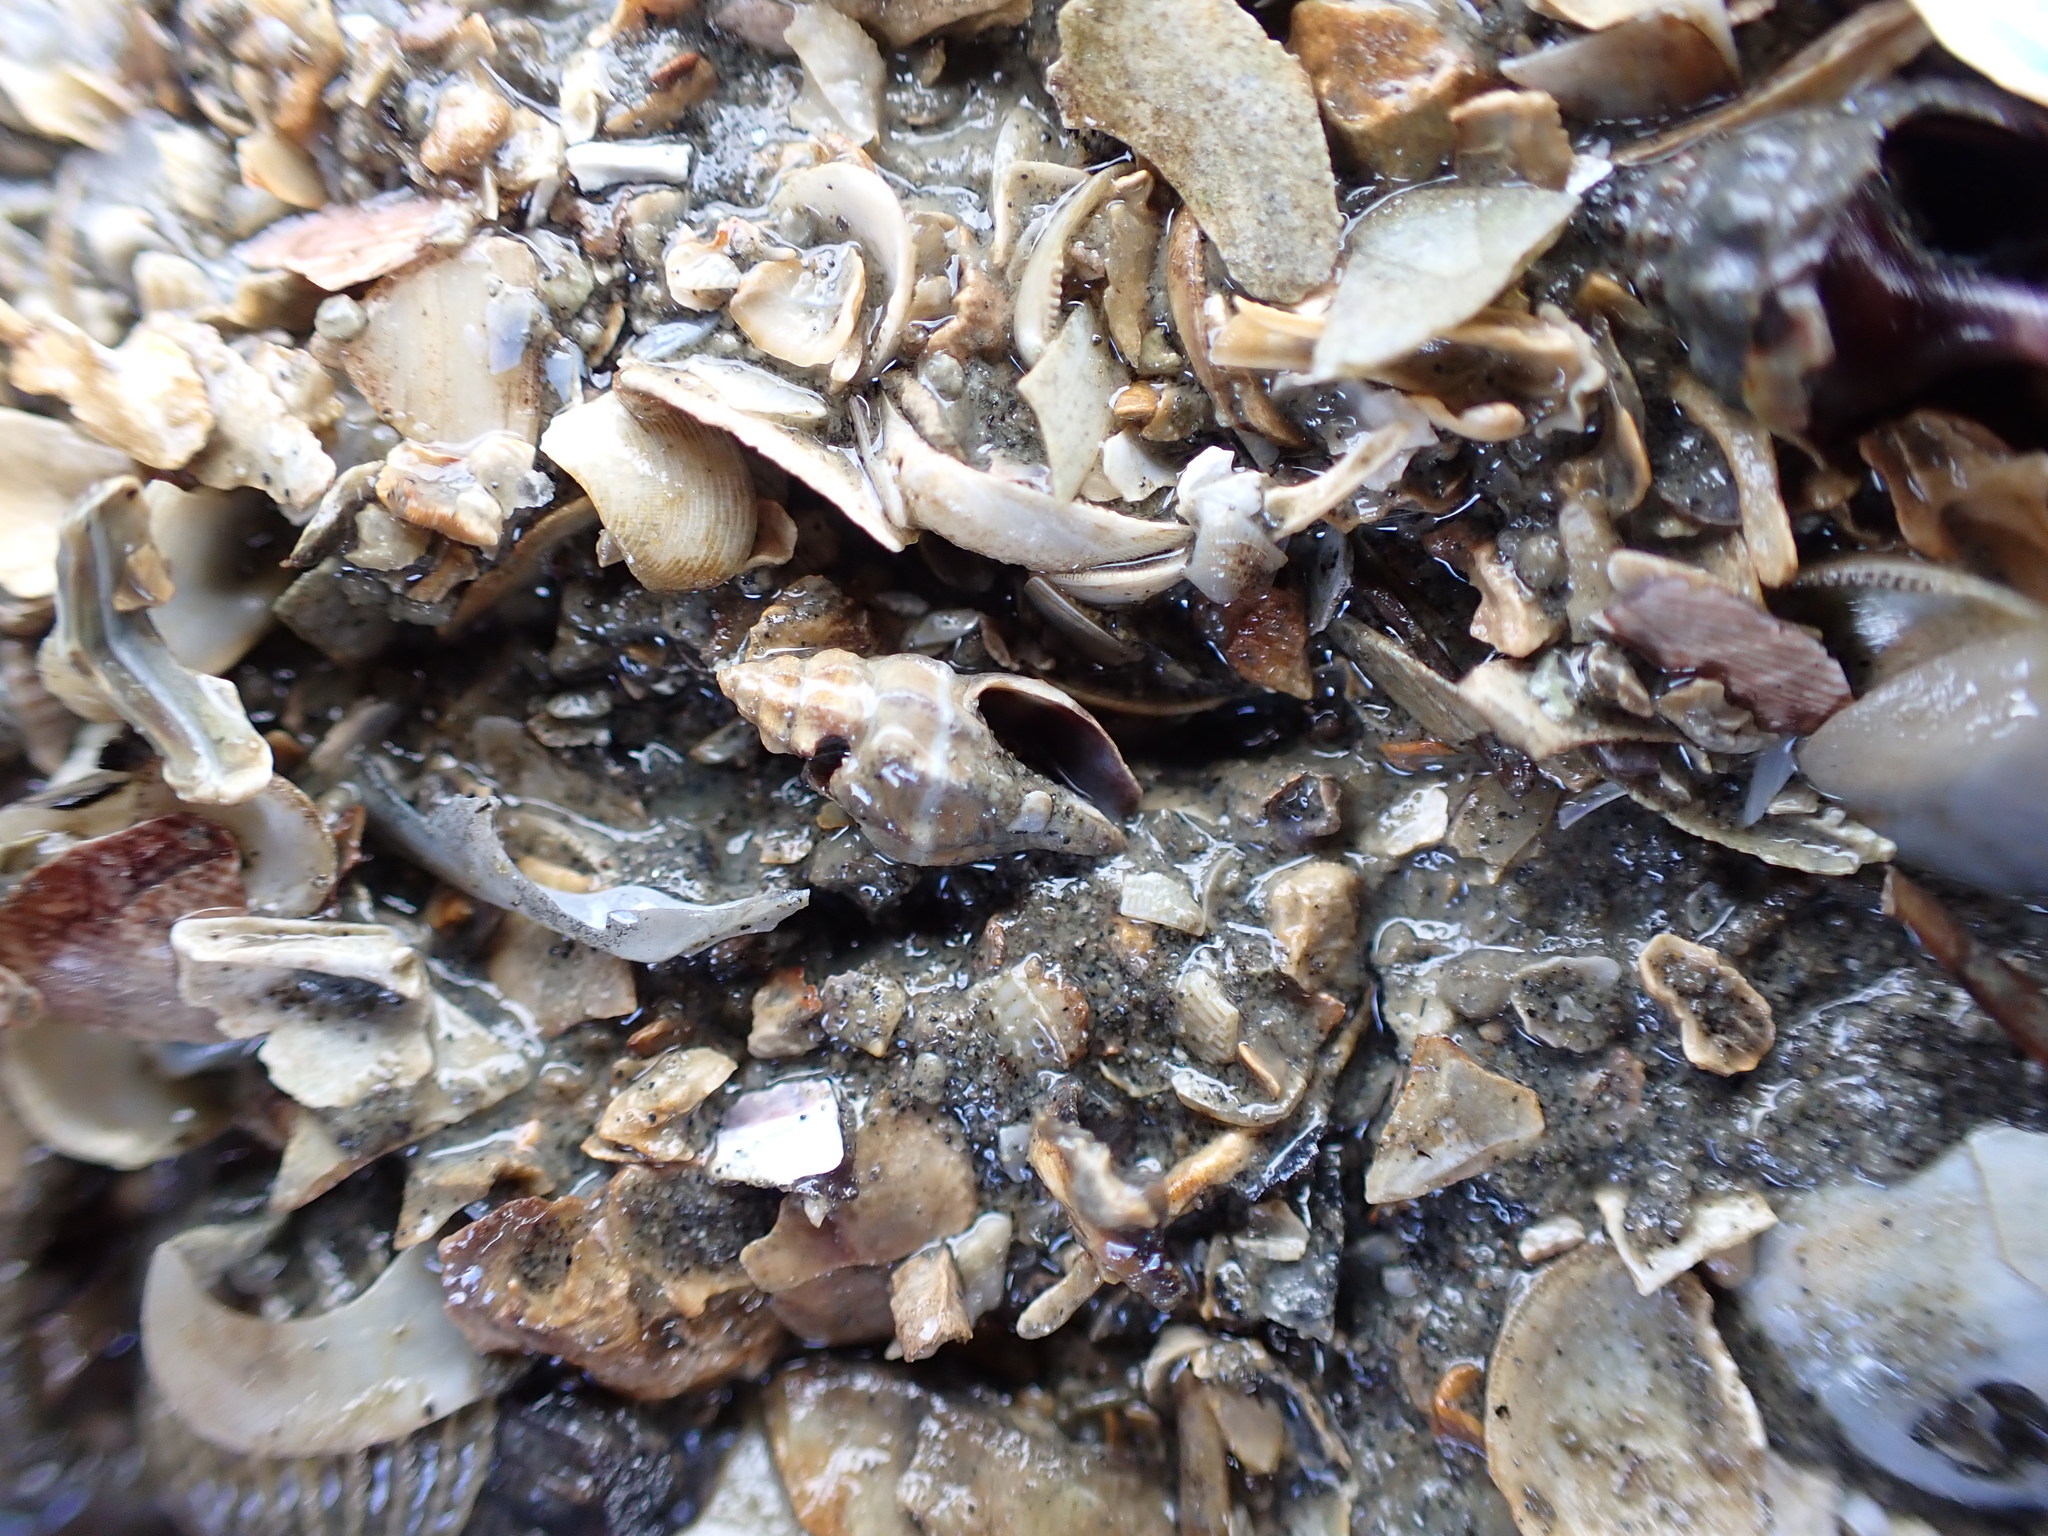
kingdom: Animalia
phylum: Mollusca
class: Gastropoda
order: Neogastropoda
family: Mangeliidae
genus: Neoguraleus
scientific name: Neoguraleus manukauensis
